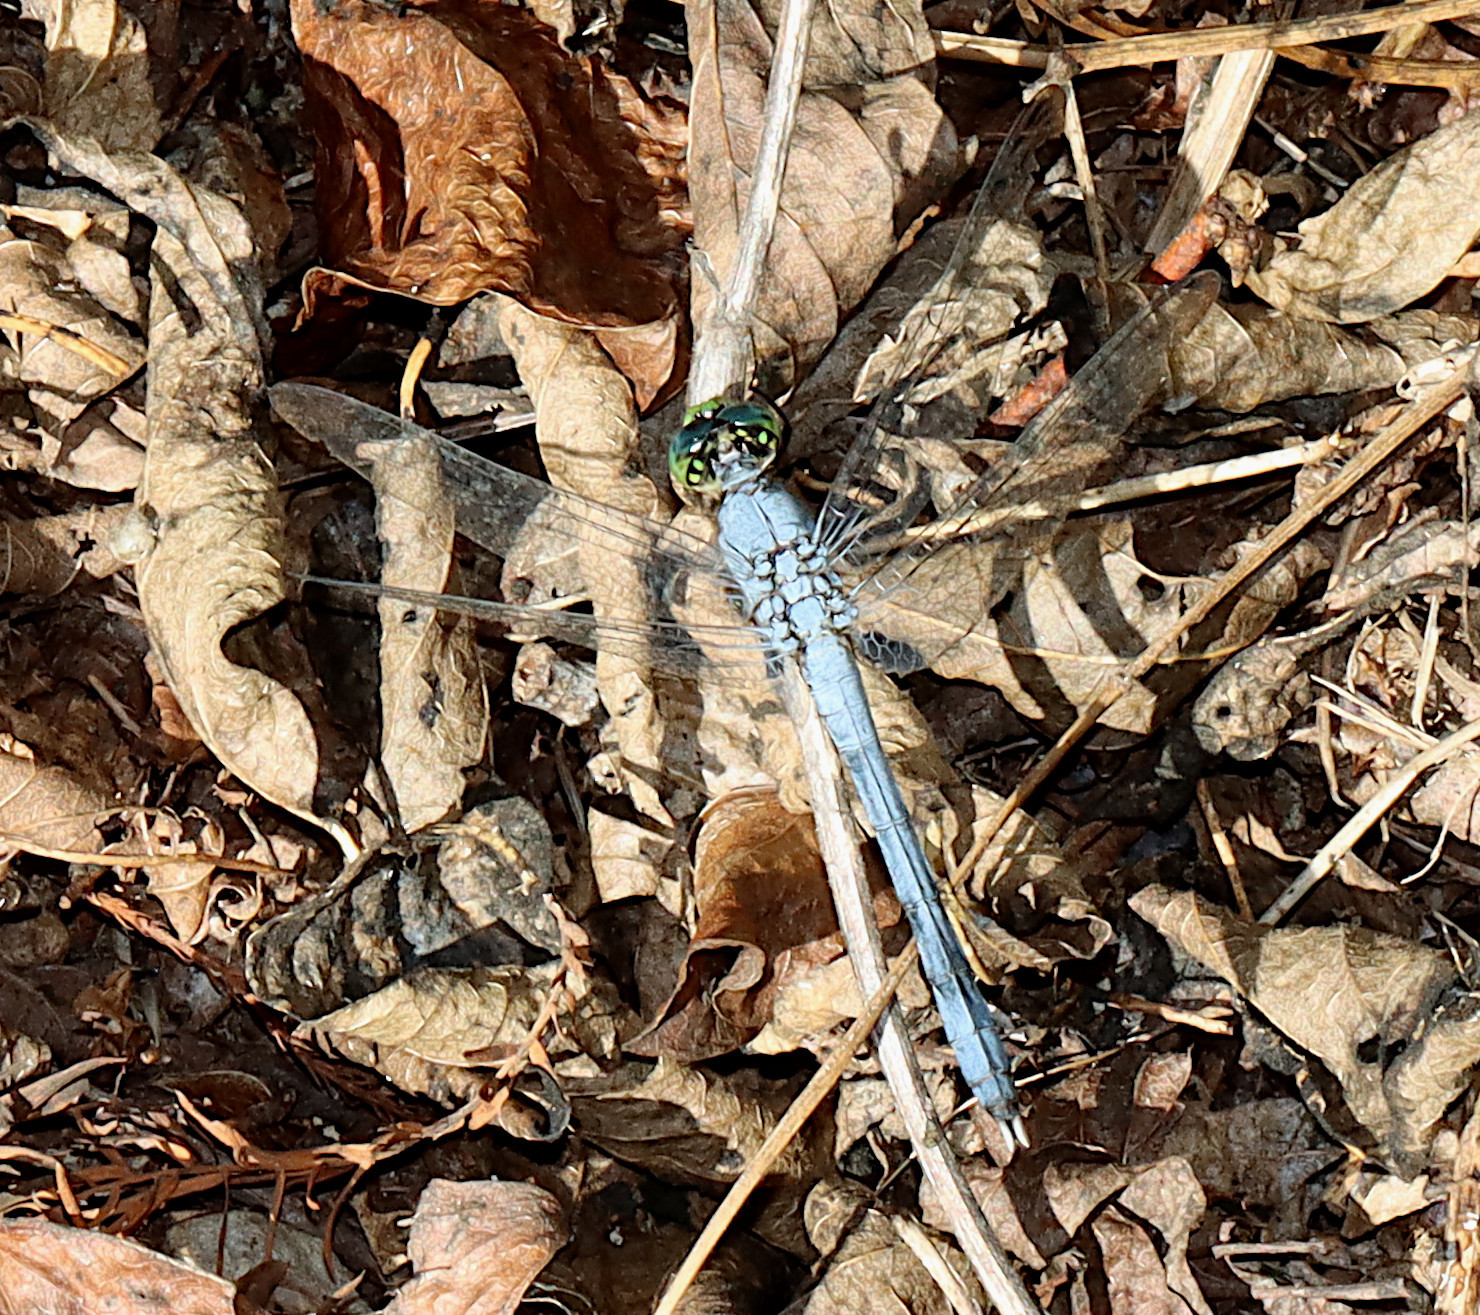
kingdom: Animalia
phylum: Arthropoda
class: Insecta
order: Odonata
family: Libellulidae
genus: Erythemis
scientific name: Erythemis simplicicollis
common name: Eastern pondhawk
